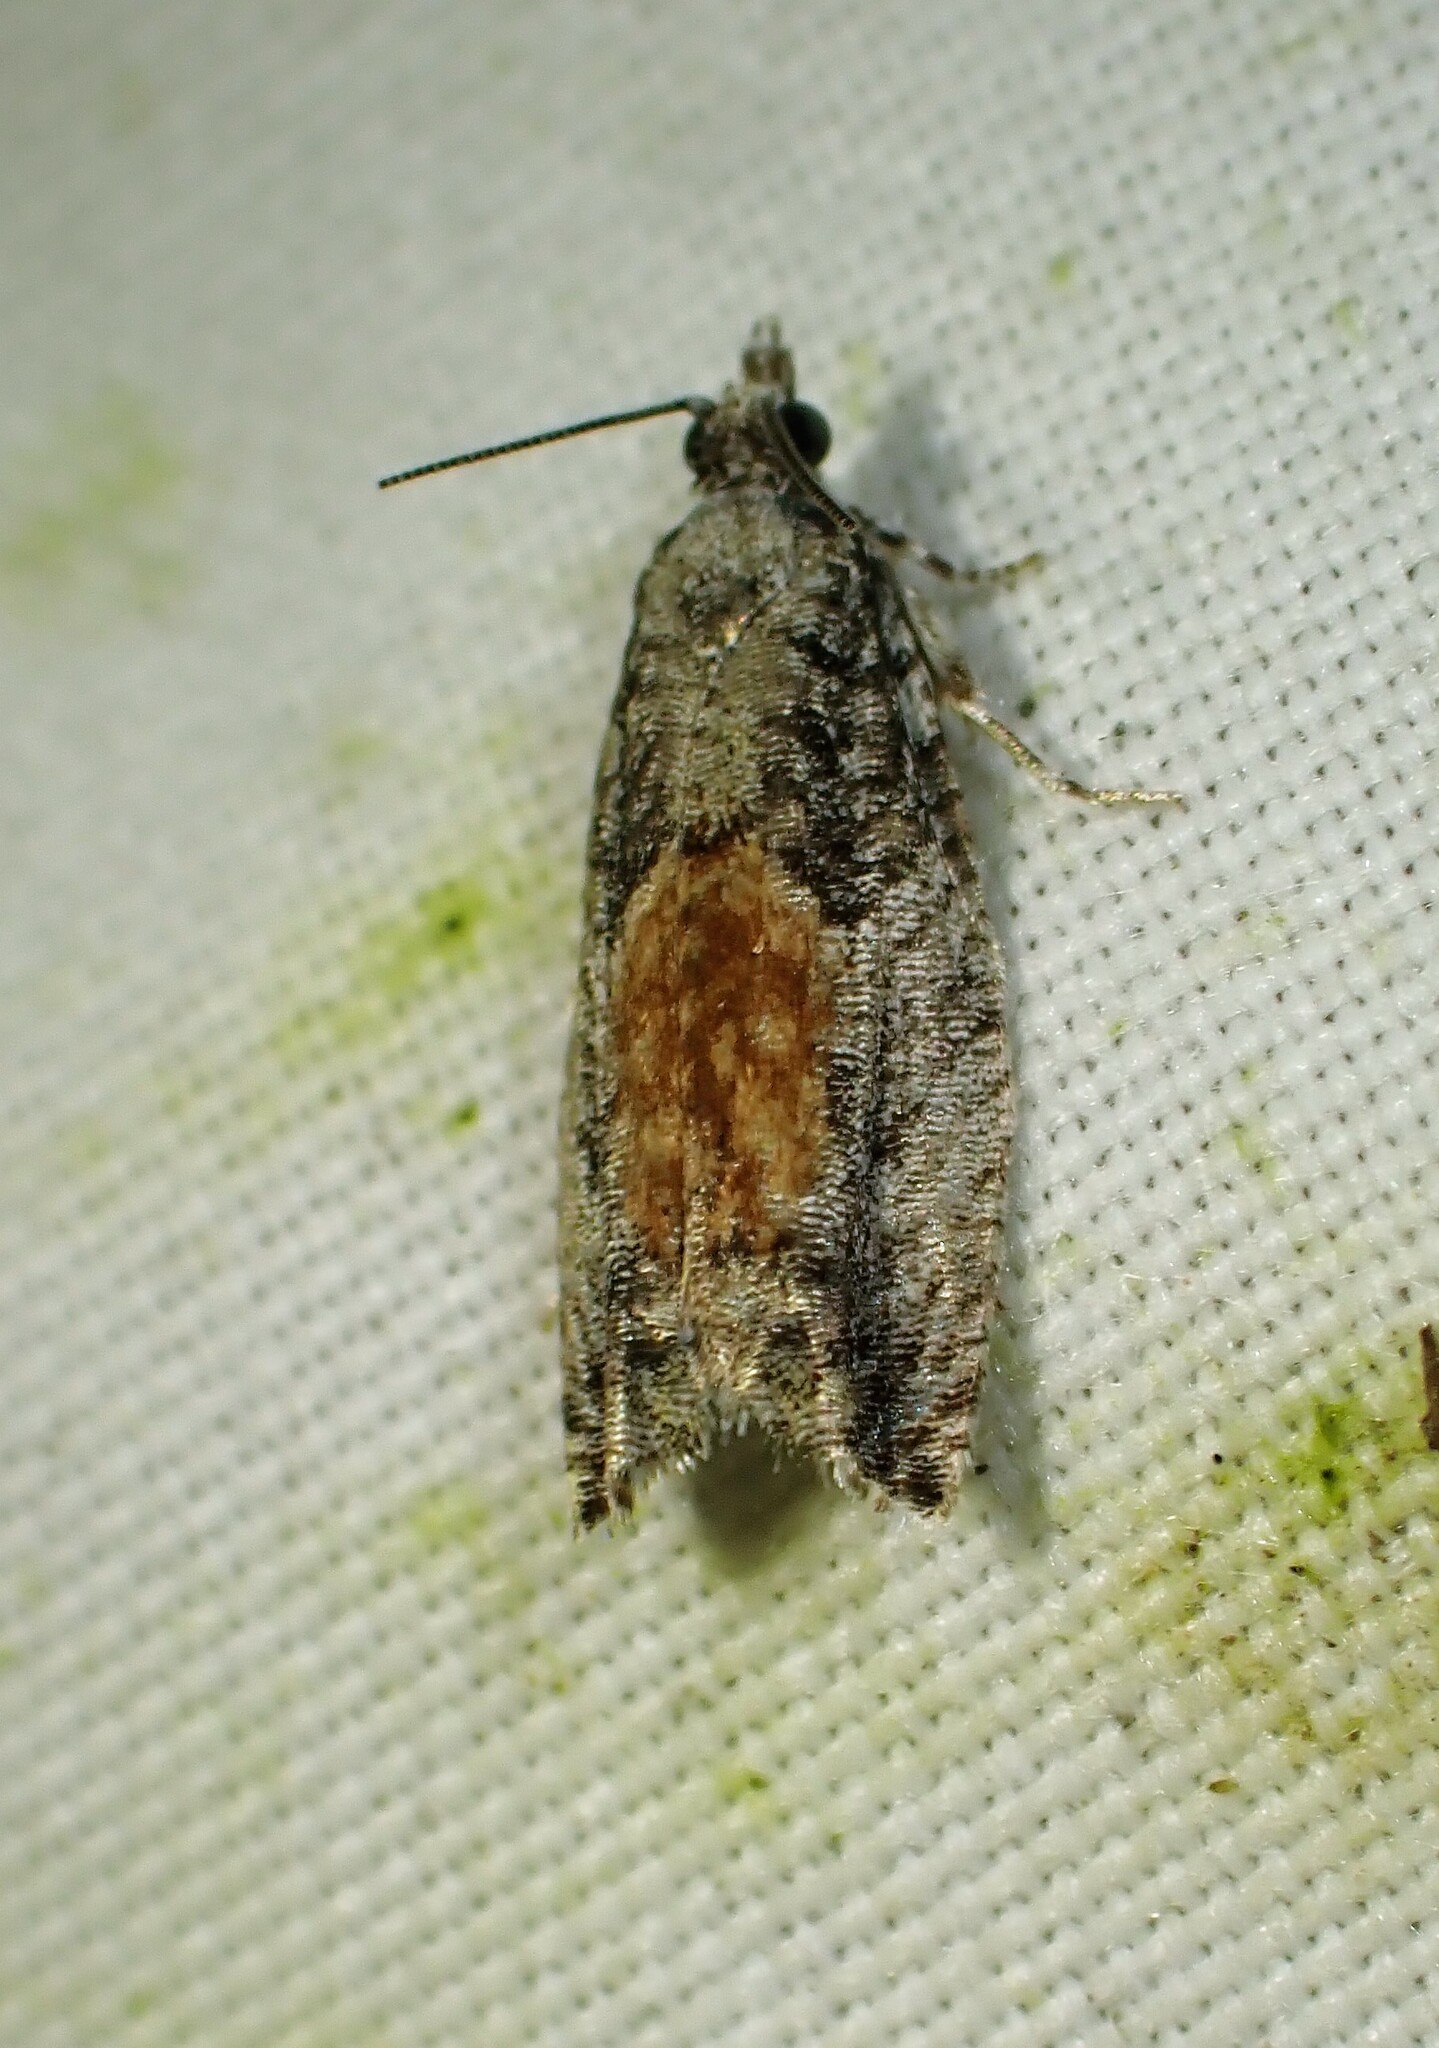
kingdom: Animalia
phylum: Arthropoda
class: Insecta
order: Lepidoptera
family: Tortricidae
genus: Epinotia
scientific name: Epinotia nisella
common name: Grey poplar bell
